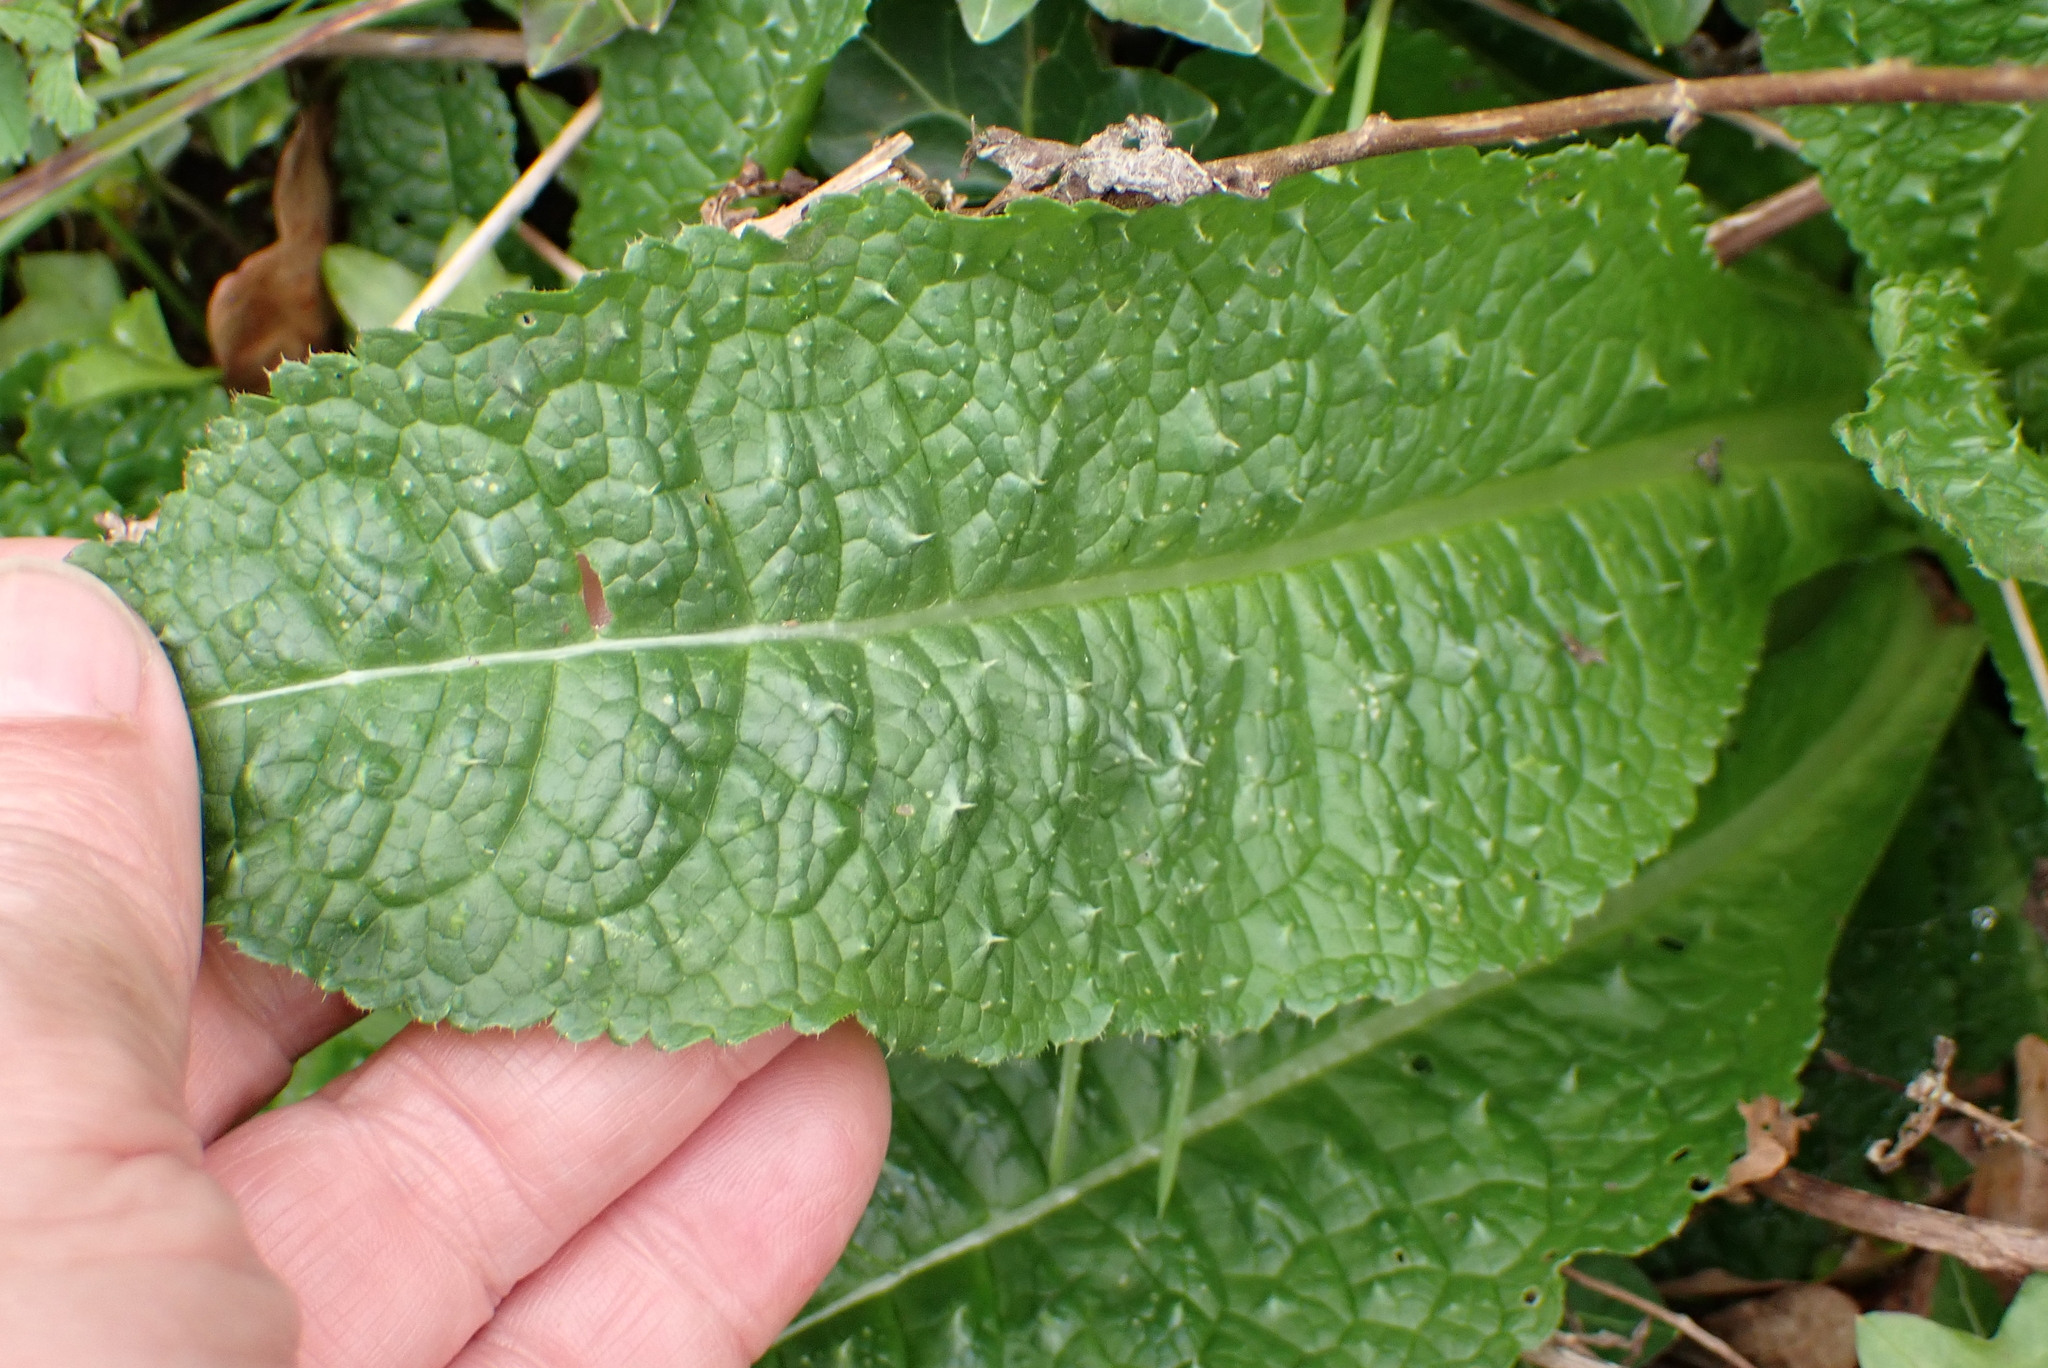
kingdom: Plantae
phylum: Tracheophyta
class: Magnoliopsida
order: Dipsacales
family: Caprifoliaceae
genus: Dipsacus
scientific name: Dipsacus fullonum
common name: Teasel
